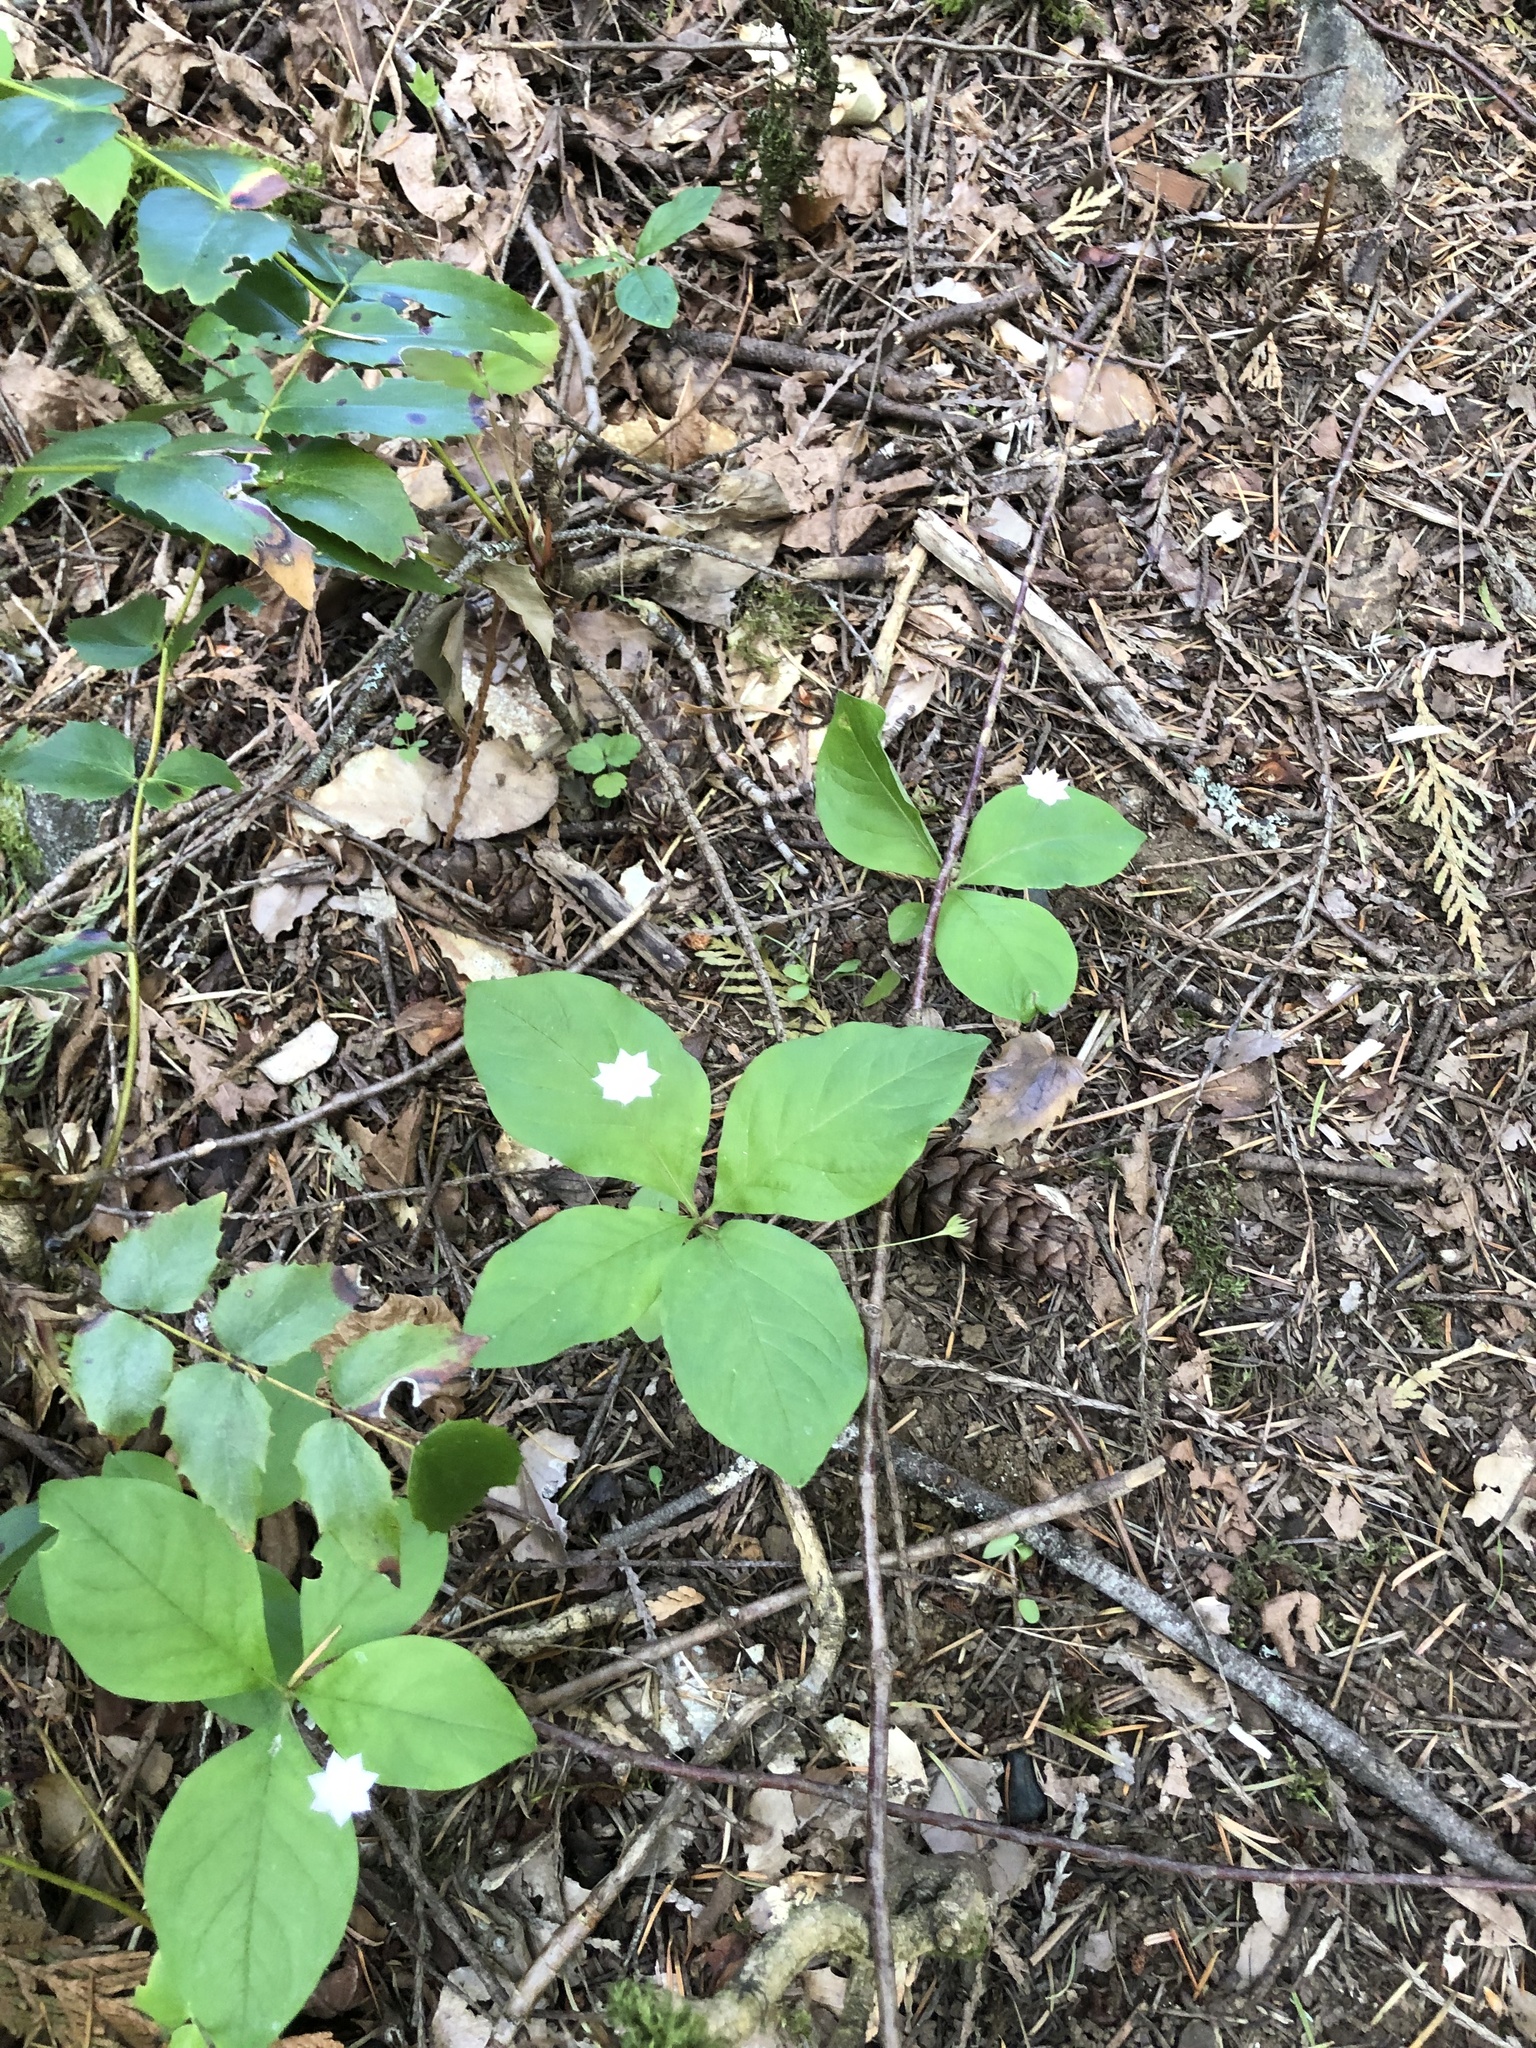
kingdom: Plantae
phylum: Tracheophyta
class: Magnoliopsida
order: Ericales
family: Primulaceae
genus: Lysimachia
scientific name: Lysimachia latifolia
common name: Pacific starflower
